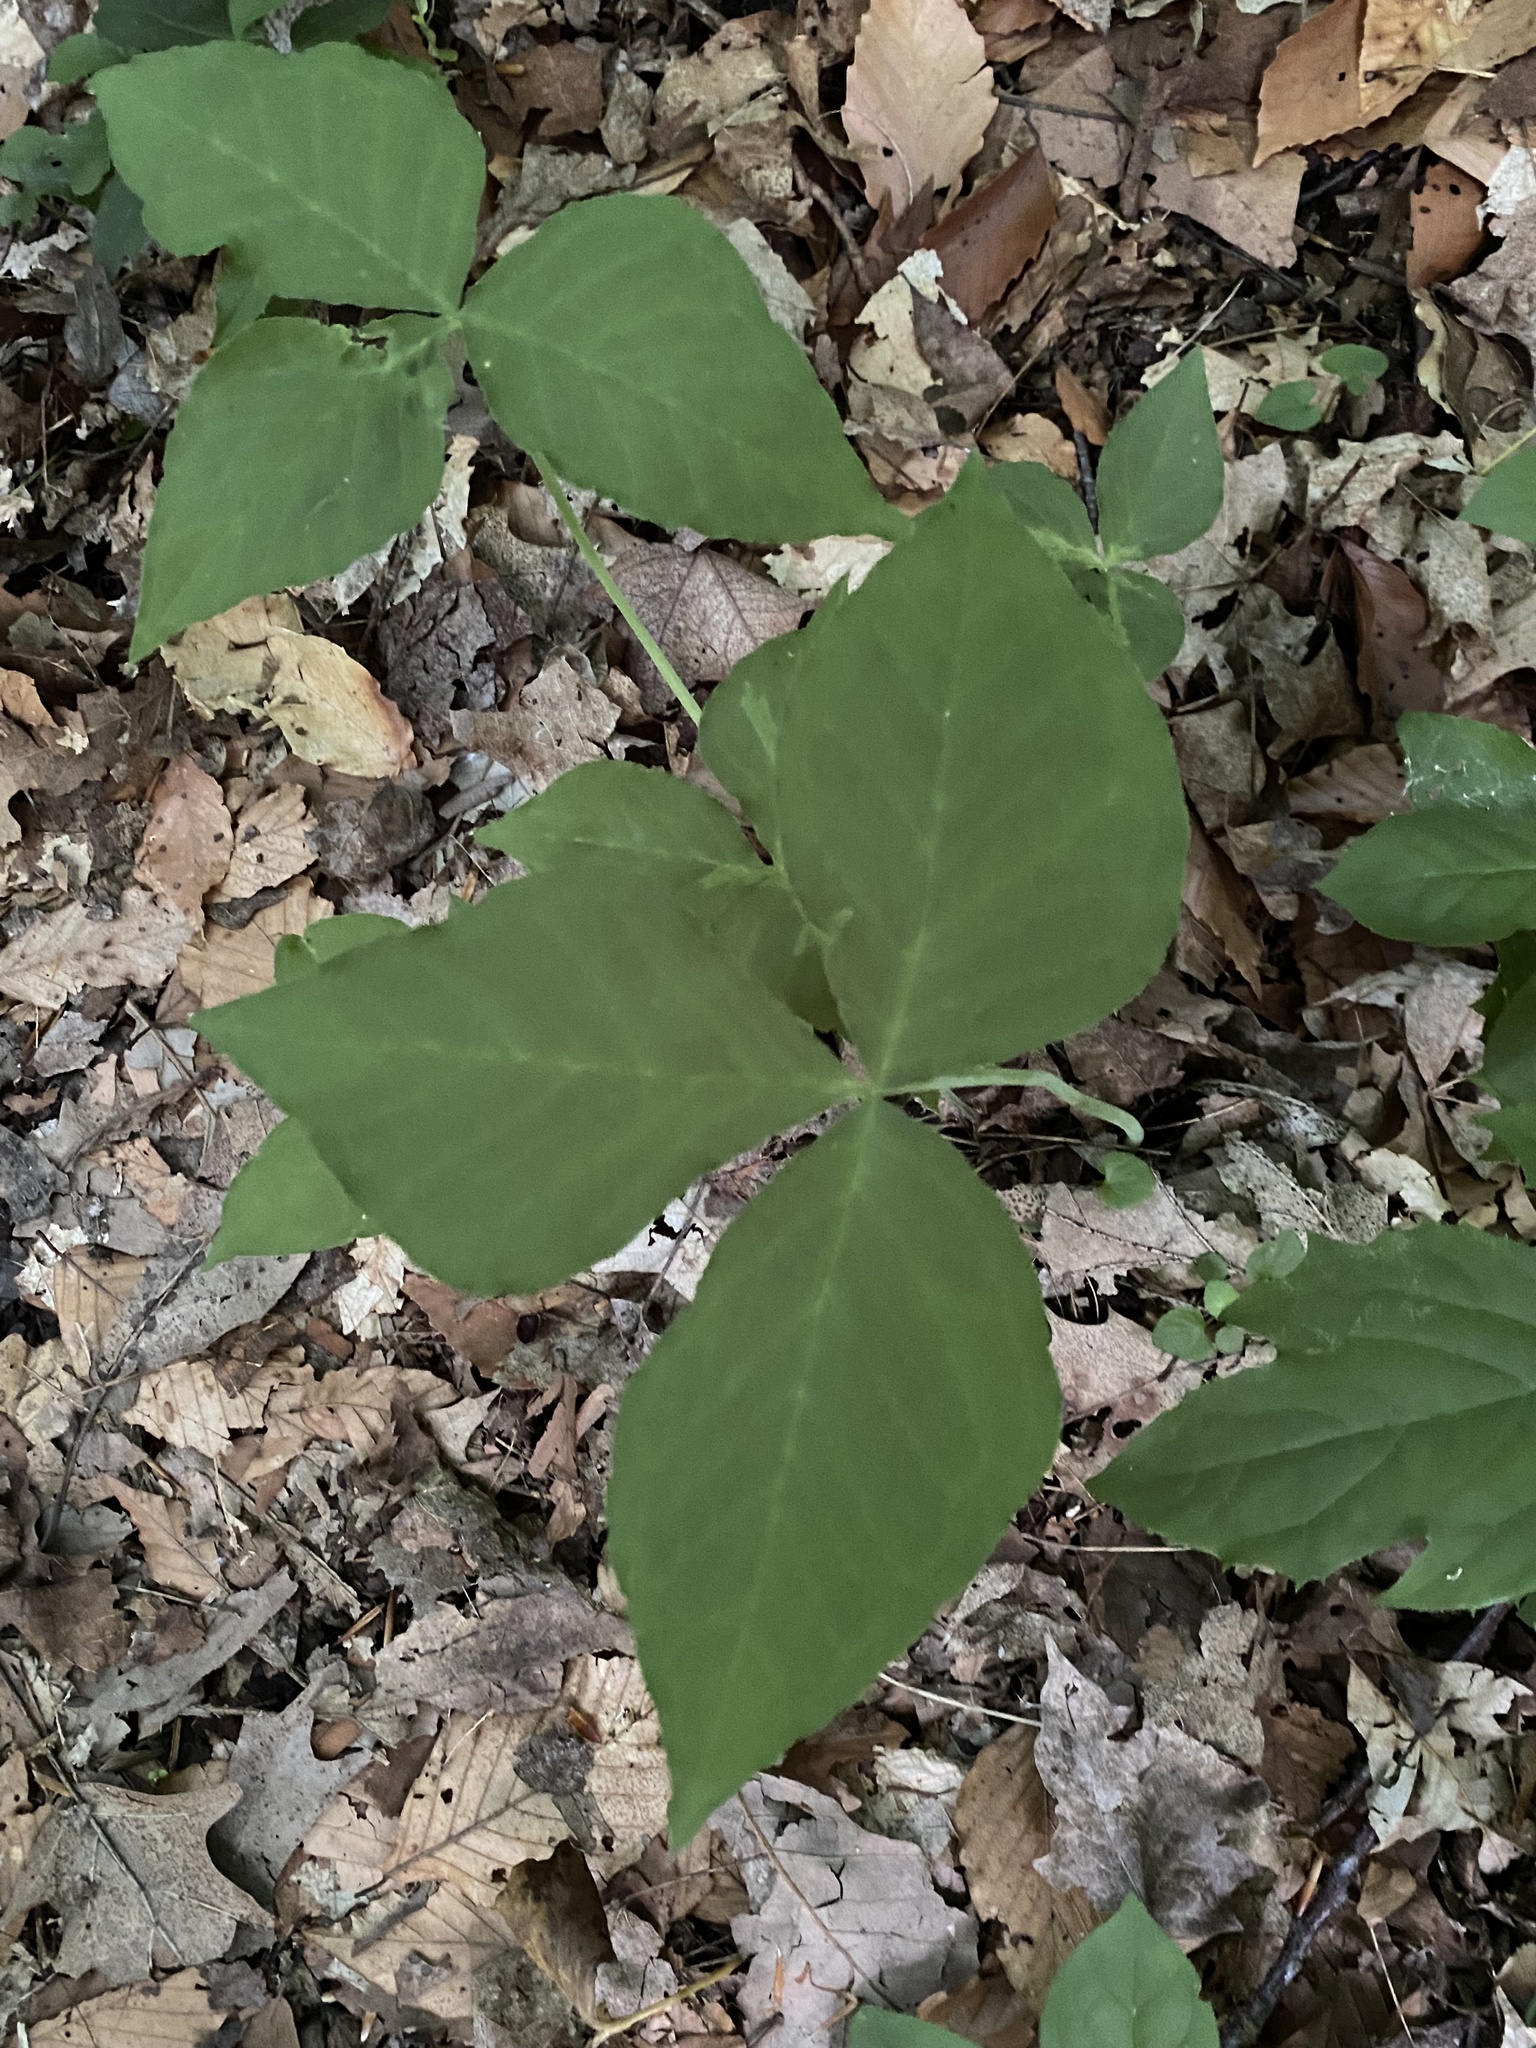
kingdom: Plantae
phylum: Tracheophyta
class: Liliopsida
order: Alismatales
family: Araceae
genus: Arisaema
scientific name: Arisaema triphyllum
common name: Jack-in-the-pulpit
